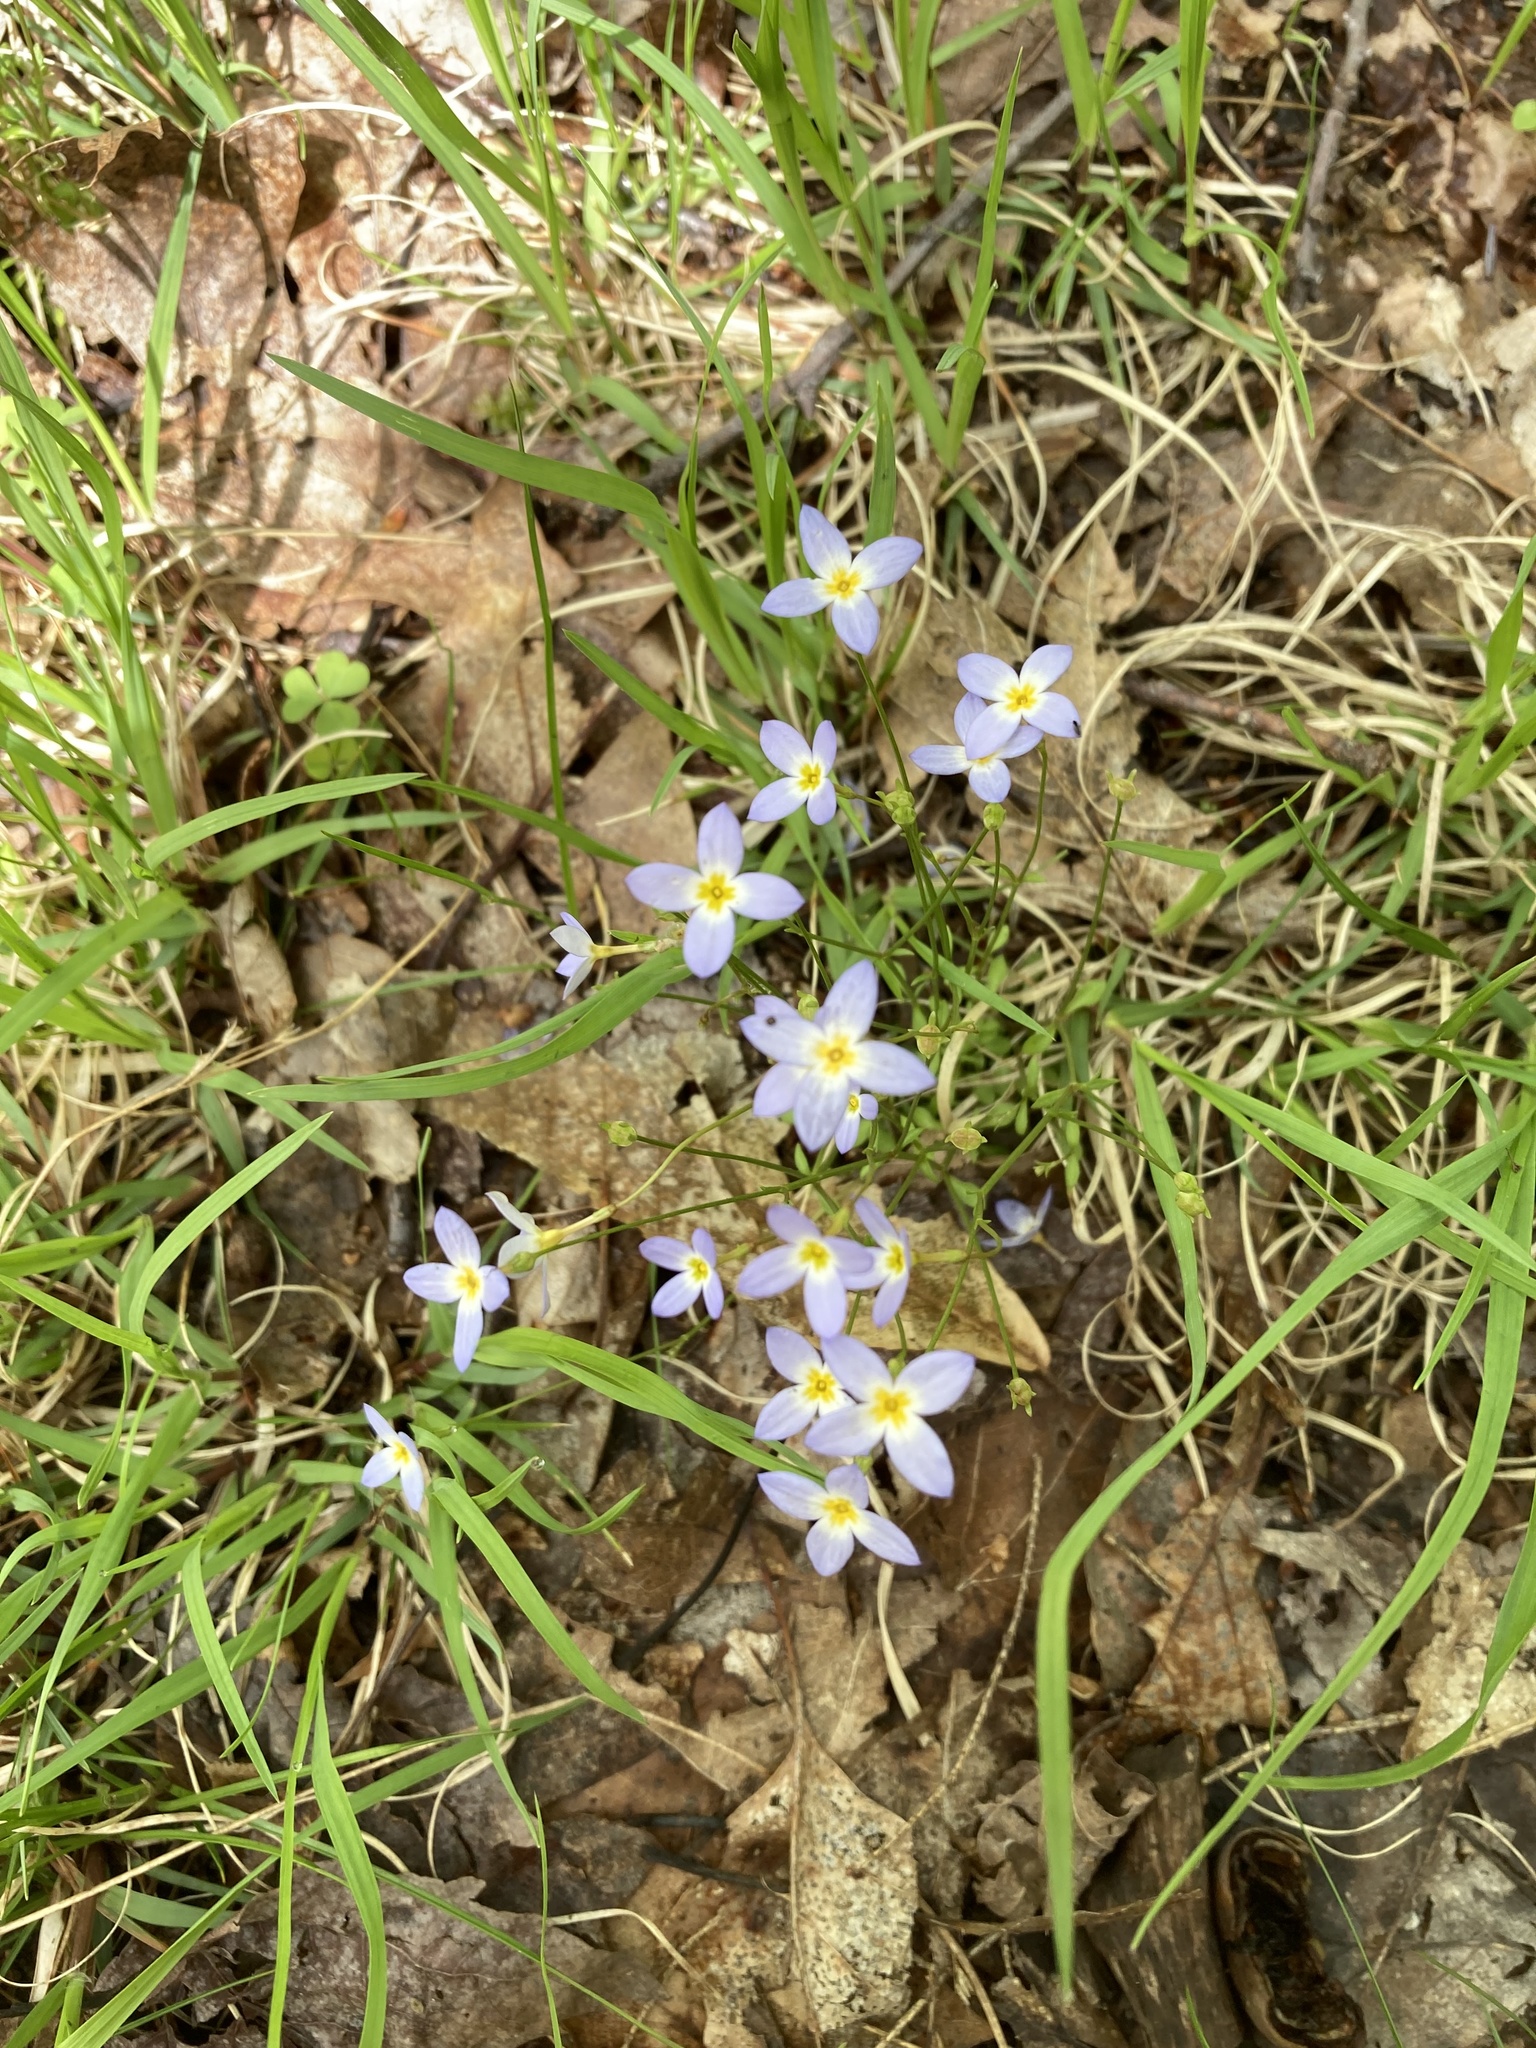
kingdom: Plantae
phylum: Tracheophyta
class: Magnoliopsida
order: Gentianales
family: Rubiaceae
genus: Houstonia
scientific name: Houstonia caerulea
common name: Bluets
